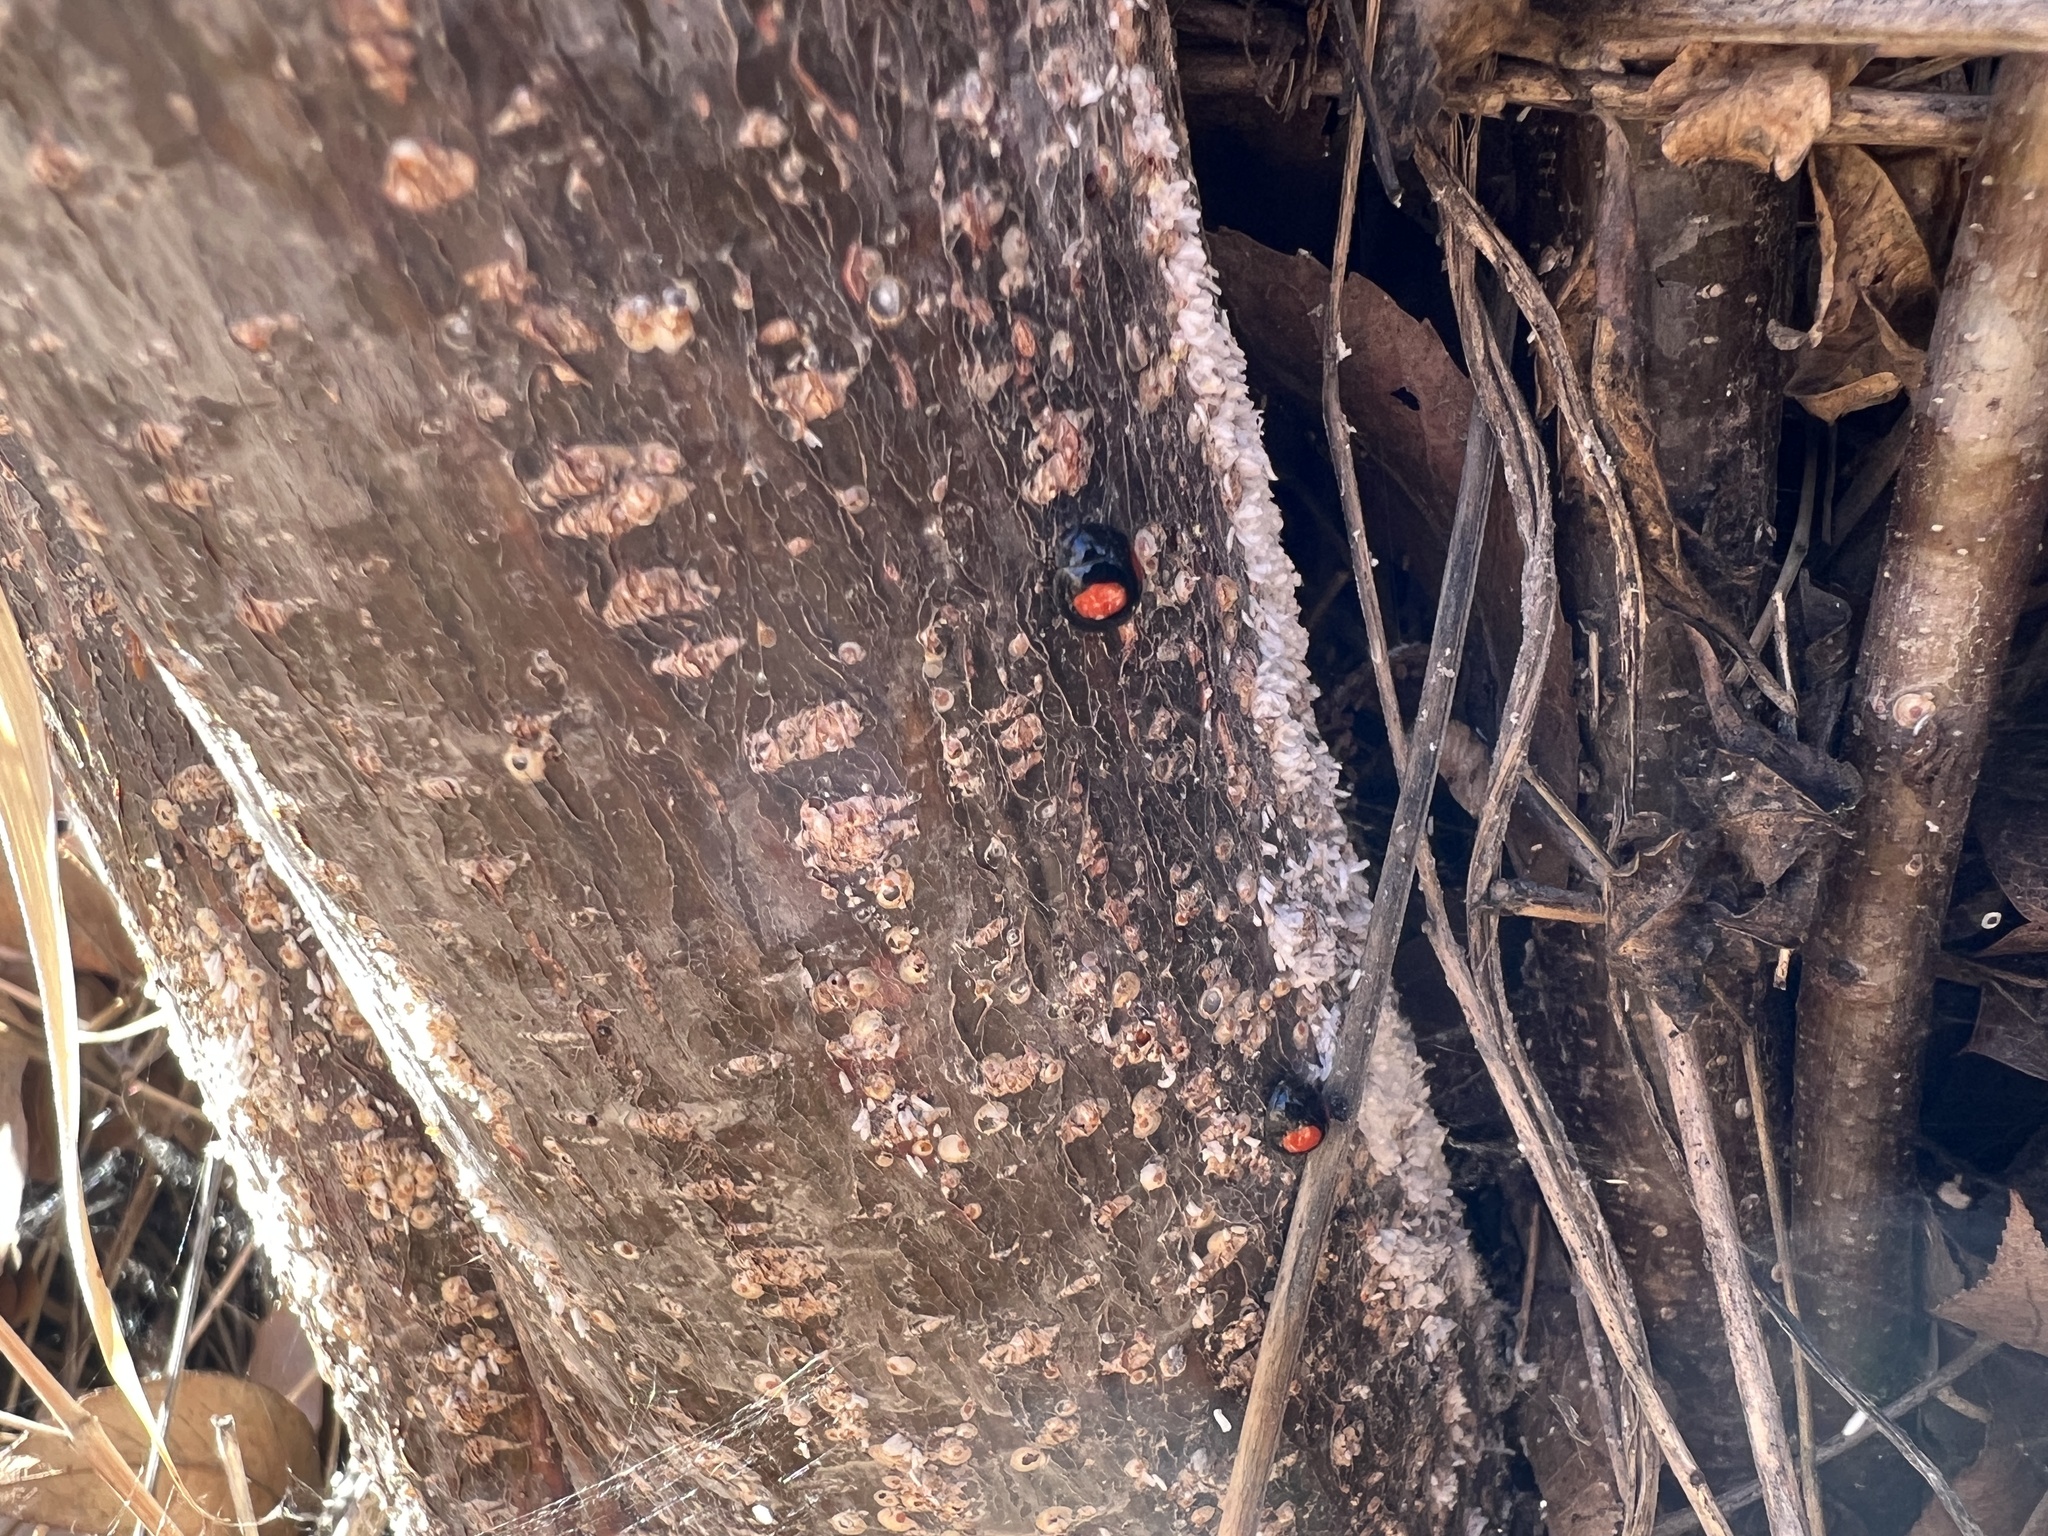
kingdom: Animalia
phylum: Arthropoda
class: Insecta
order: Coleoptera
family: Coccinellidae
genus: Chilocorus
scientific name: Chilocorus cacti
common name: Cactus lady beetle
